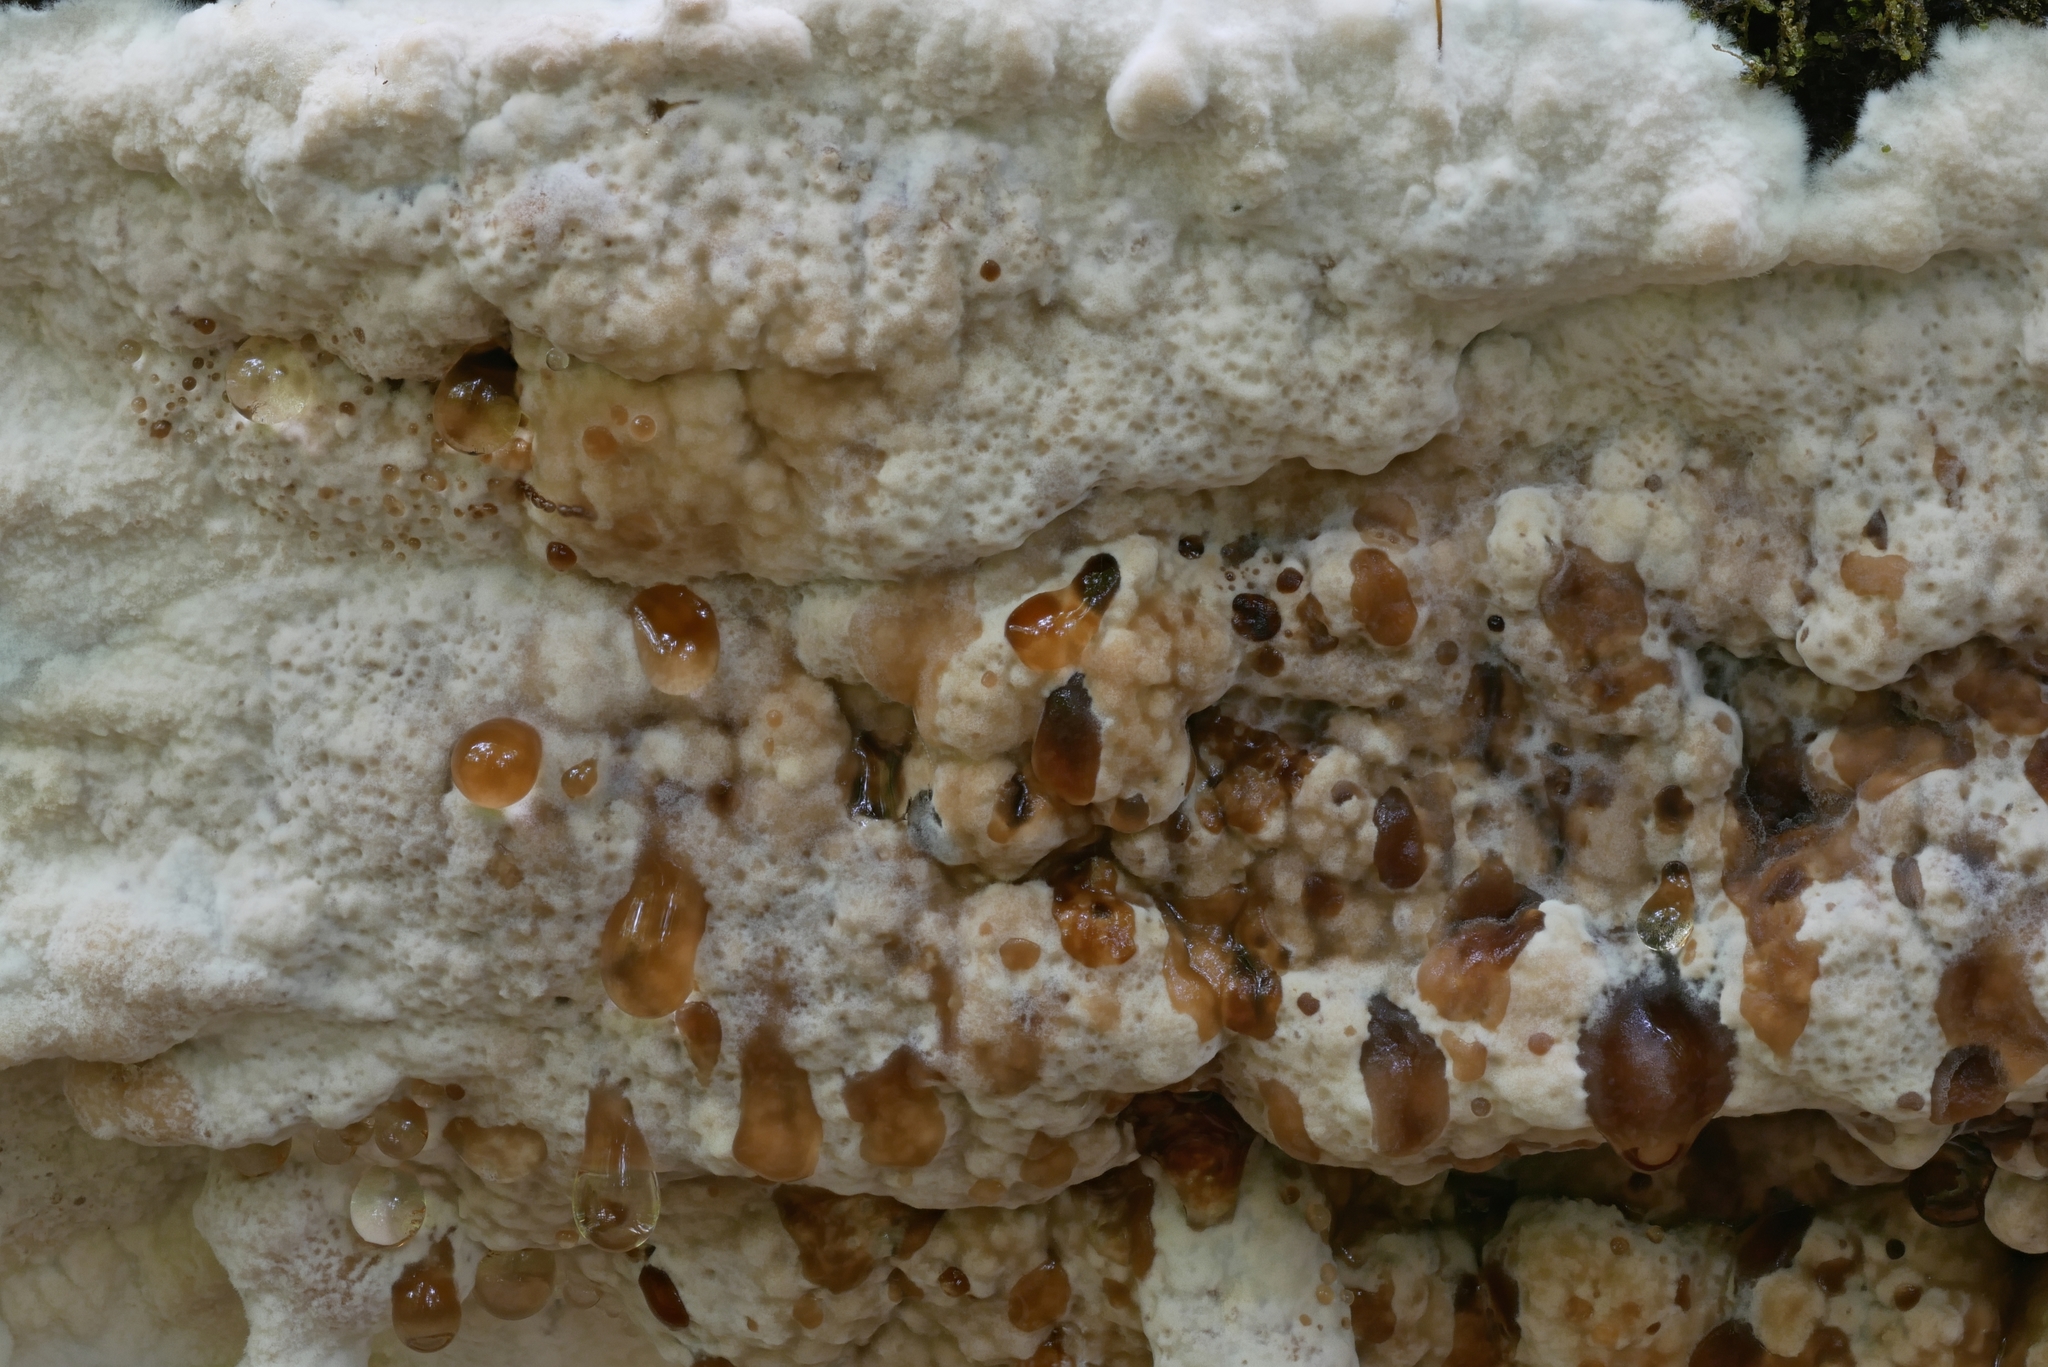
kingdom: Fungi
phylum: Basidiomycota
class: Agaricomycetes
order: Hymenochaetales
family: Hymenochaetaceae
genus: Rigidonotus
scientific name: Rigidonotus glomeratus
